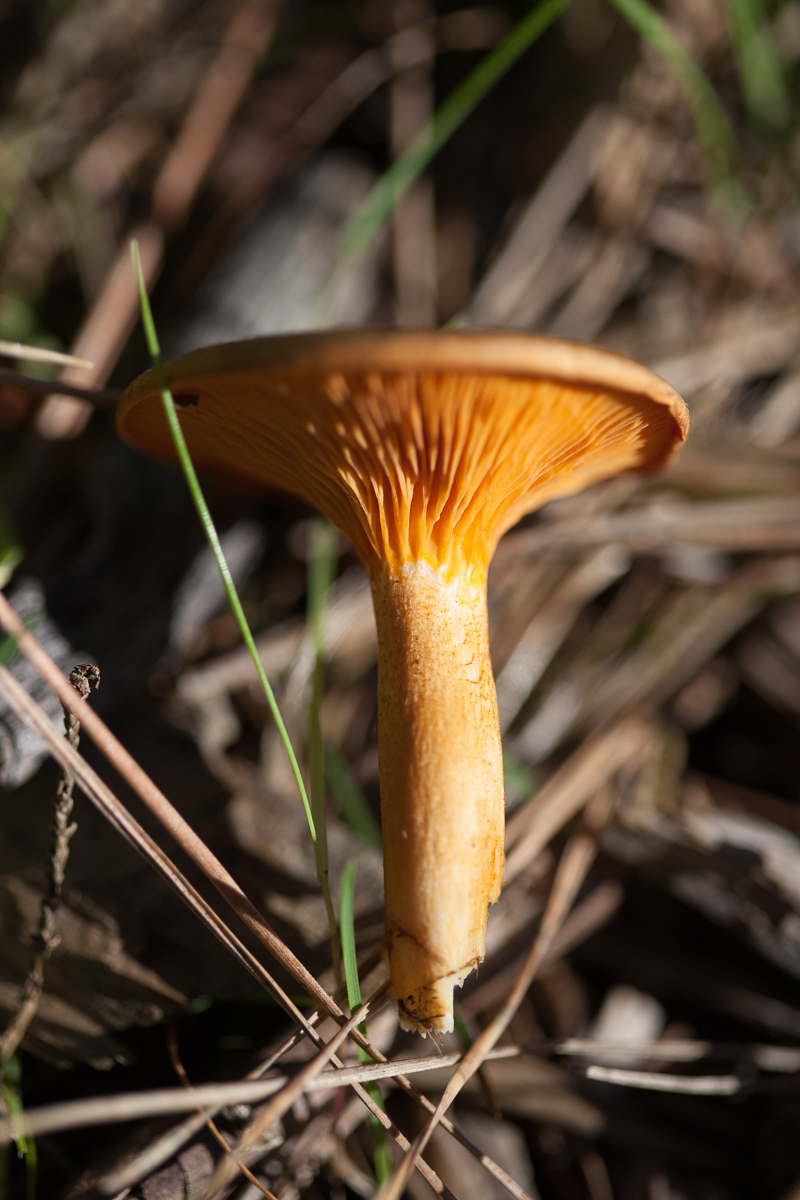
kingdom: Fungi
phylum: Basidiomycota
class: Agaricomycetes
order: Boletales
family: Hygrophoropsidaceae
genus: Hygrophoropsis
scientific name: Hygrophoropsis aurantiaca
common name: False chanterelle
